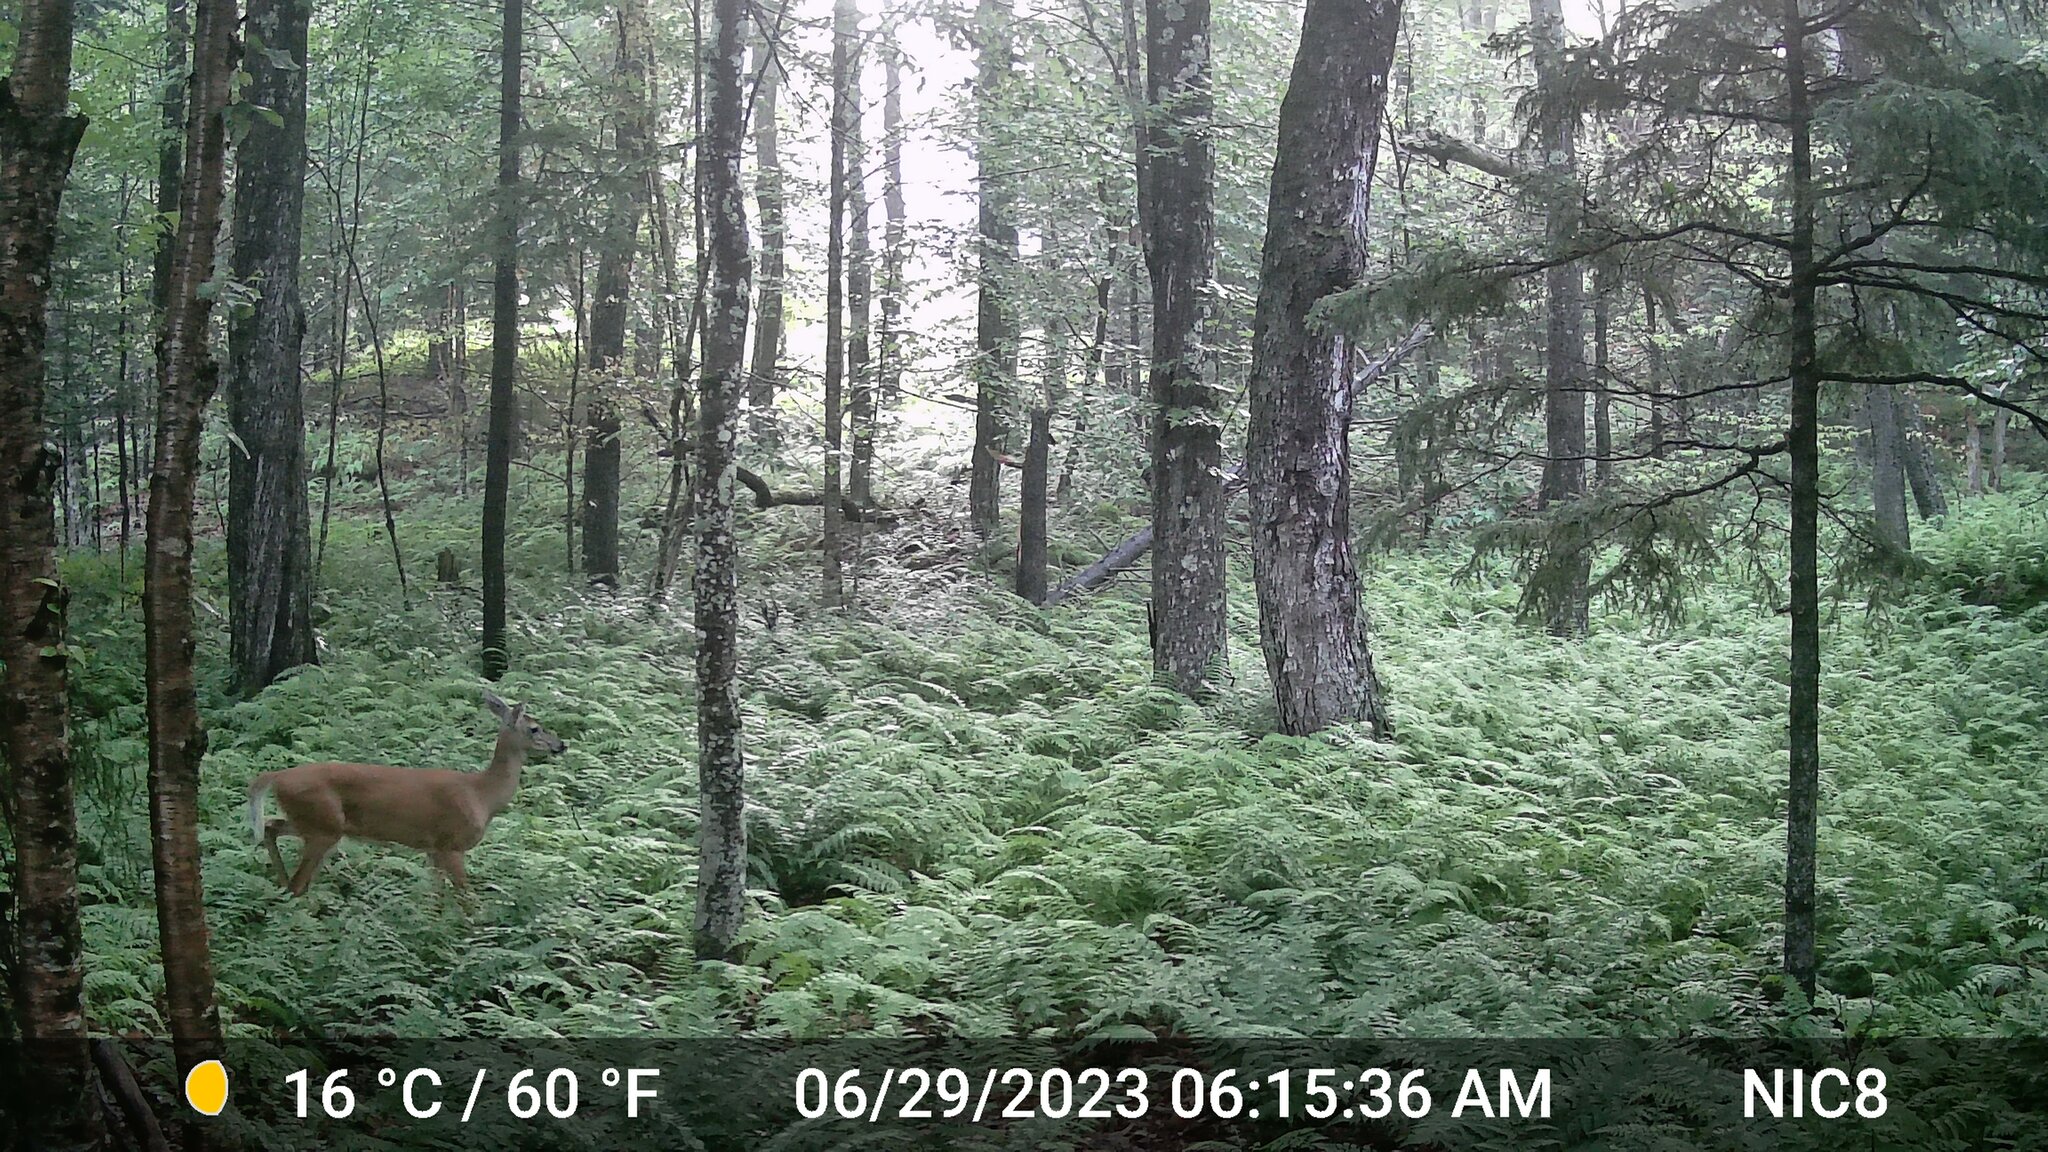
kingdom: Animalia
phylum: Chordata
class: Mammalia
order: Artiodactyla
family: Cervidae
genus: Odocoileus
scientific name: Odocoileus virginianus
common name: White-tailed deer
